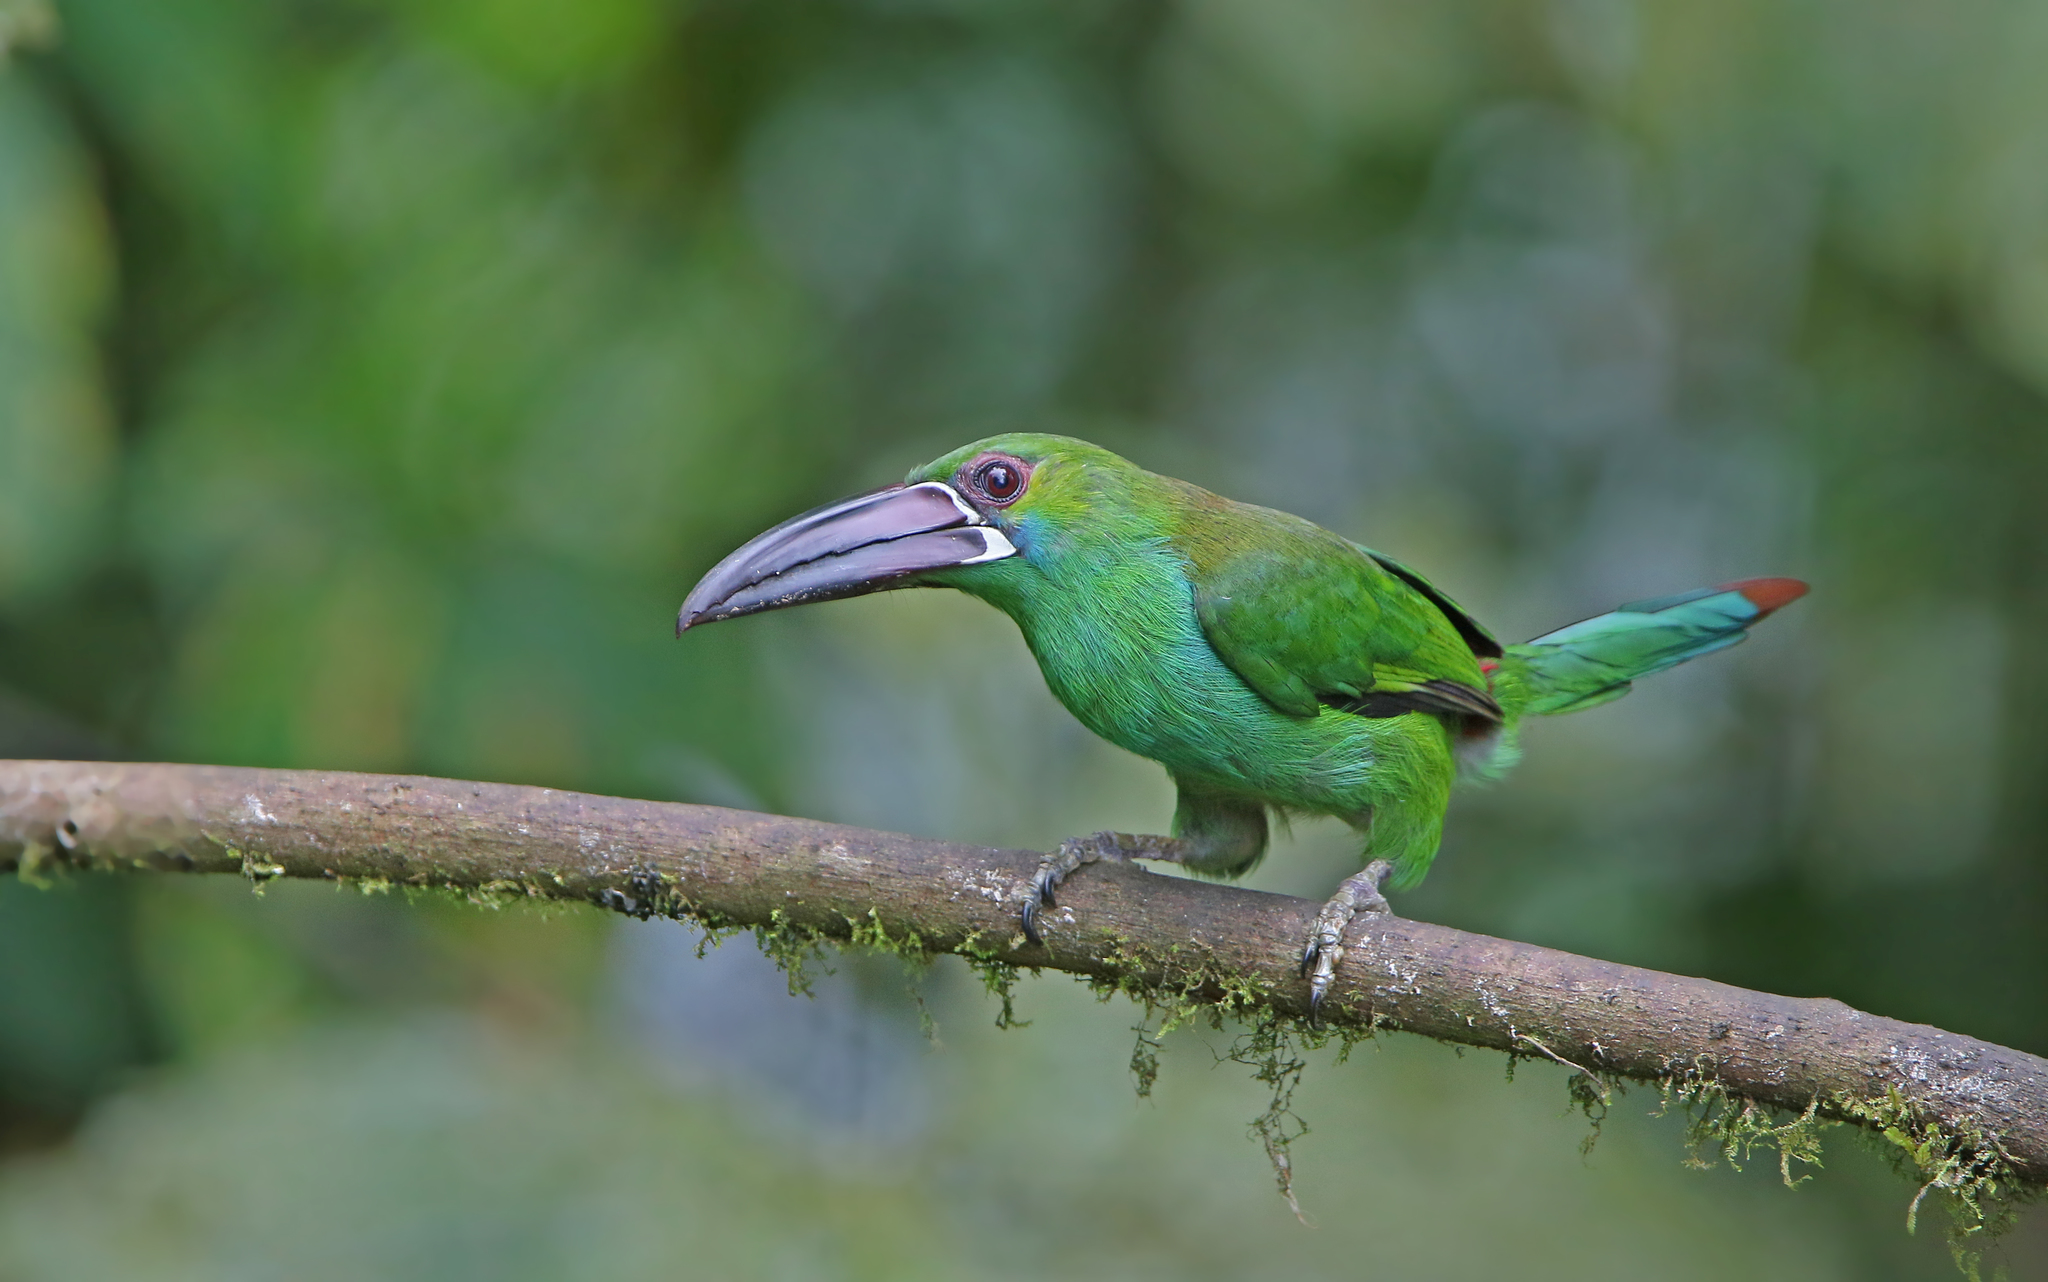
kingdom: Animalia
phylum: Chordata
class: Aves
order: Piciformes
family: Ramphastidae
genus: Aulacorhynchus
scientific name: Aulacorhynchus haematopygus
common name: Crimson-rumped toucanet
